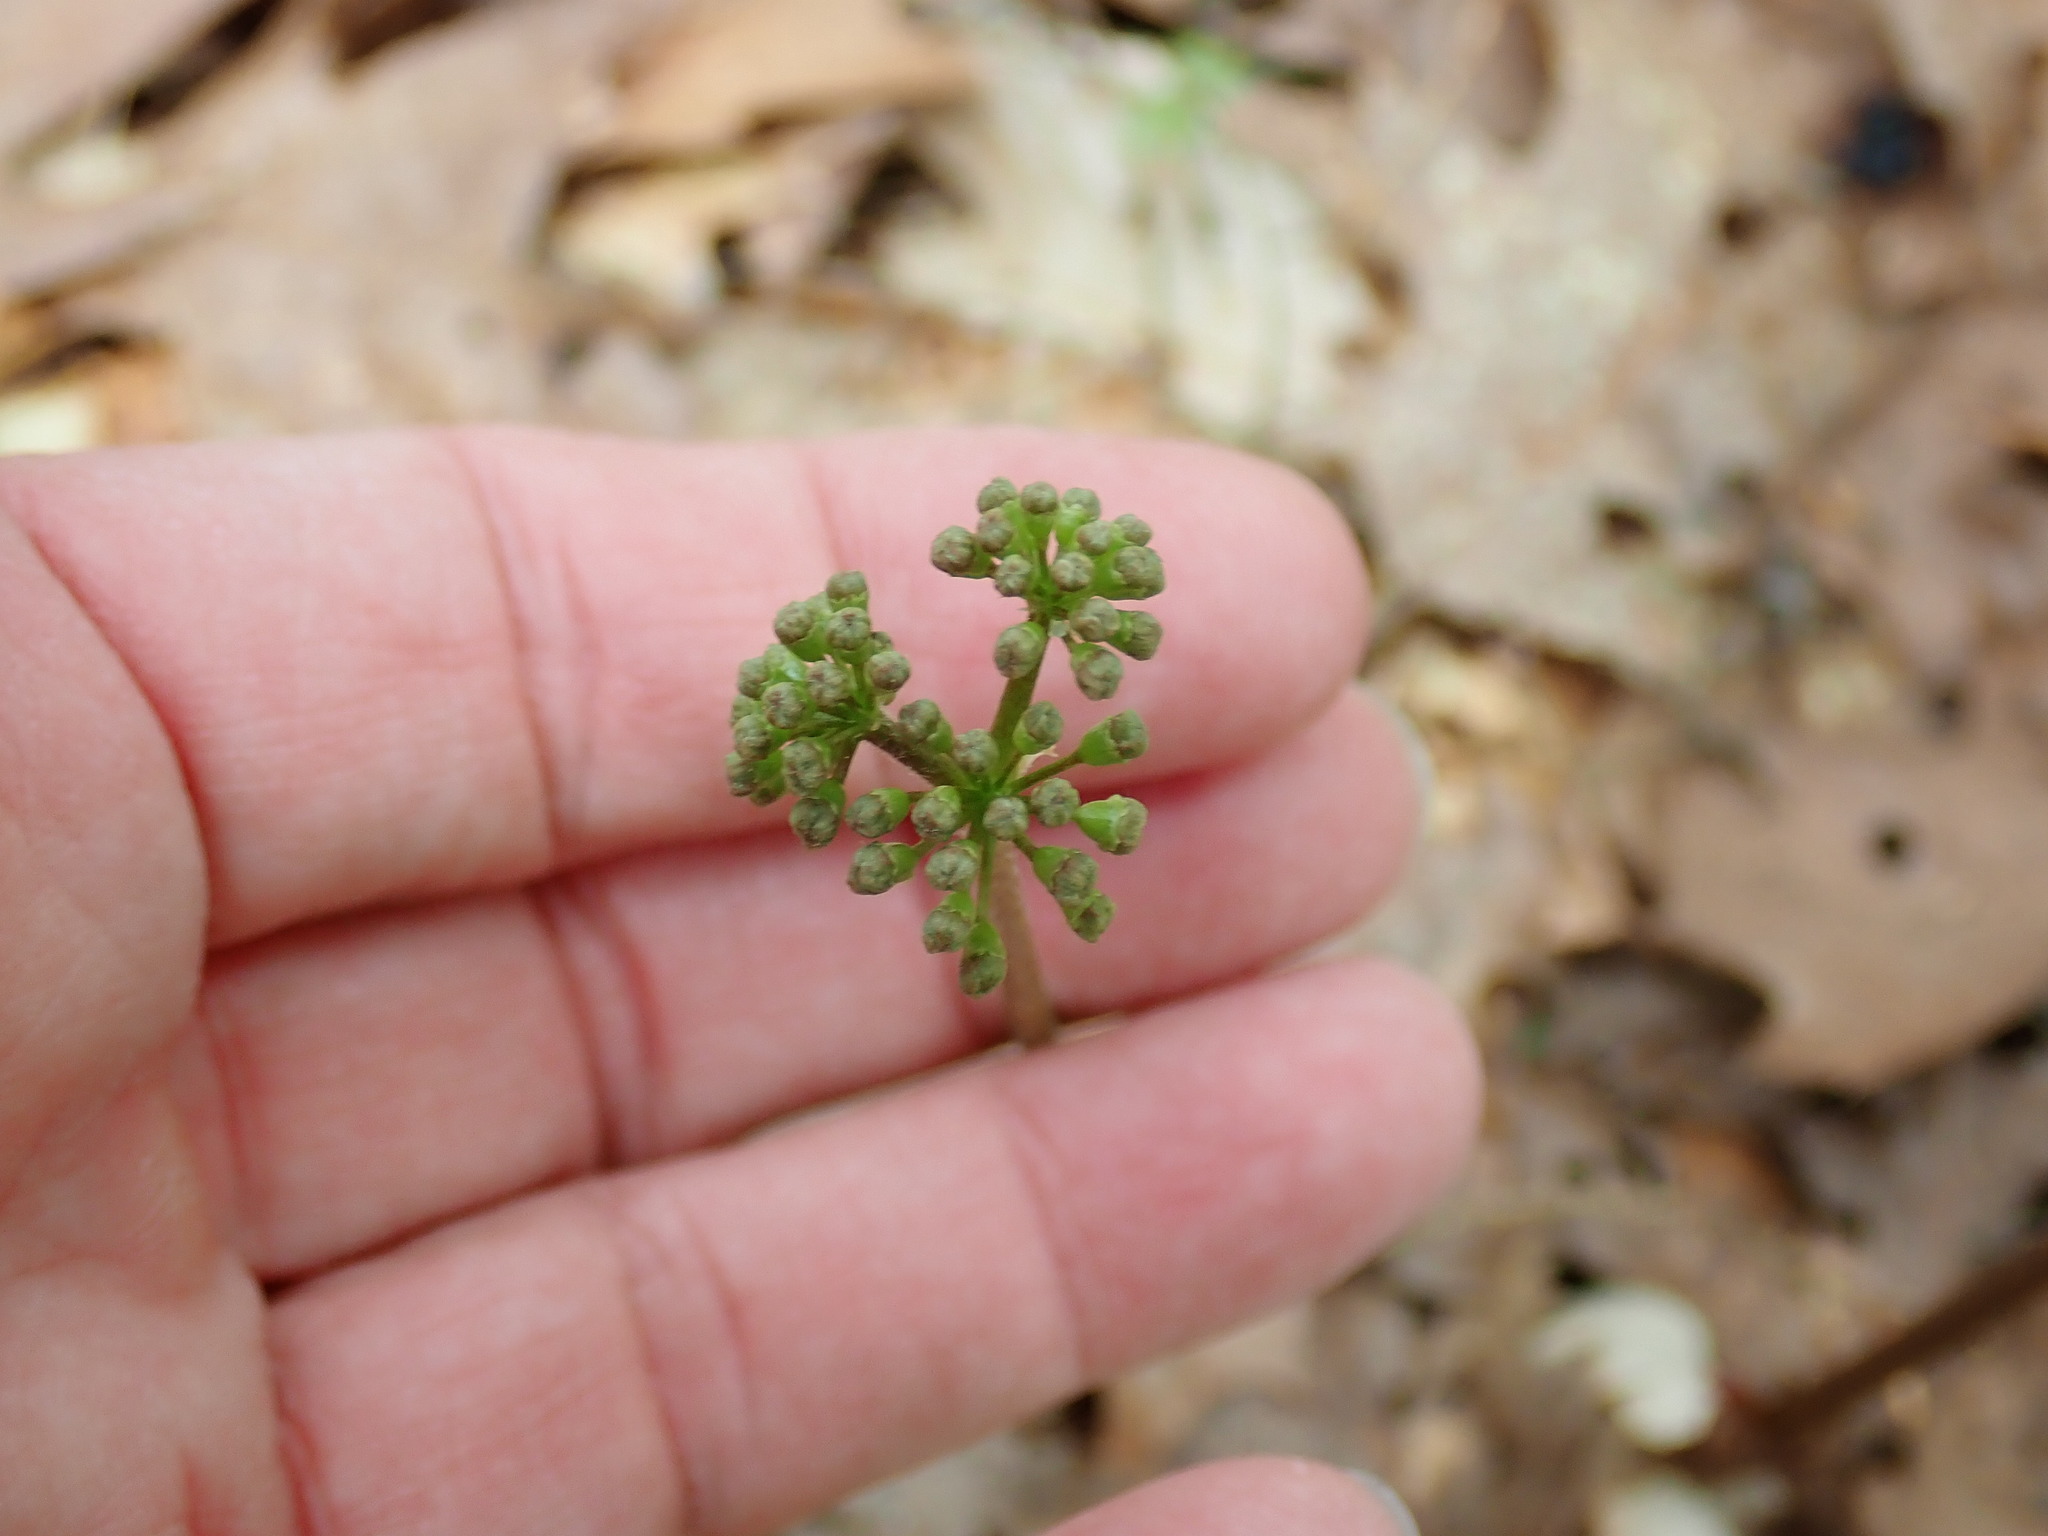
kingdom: Plantae
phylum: Tracheophyta
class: Magnoliopsida
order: Apiales
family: Araliaceae
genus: Aralia
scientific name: Aralia nudicaulis
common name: Wild sarsaparilla
